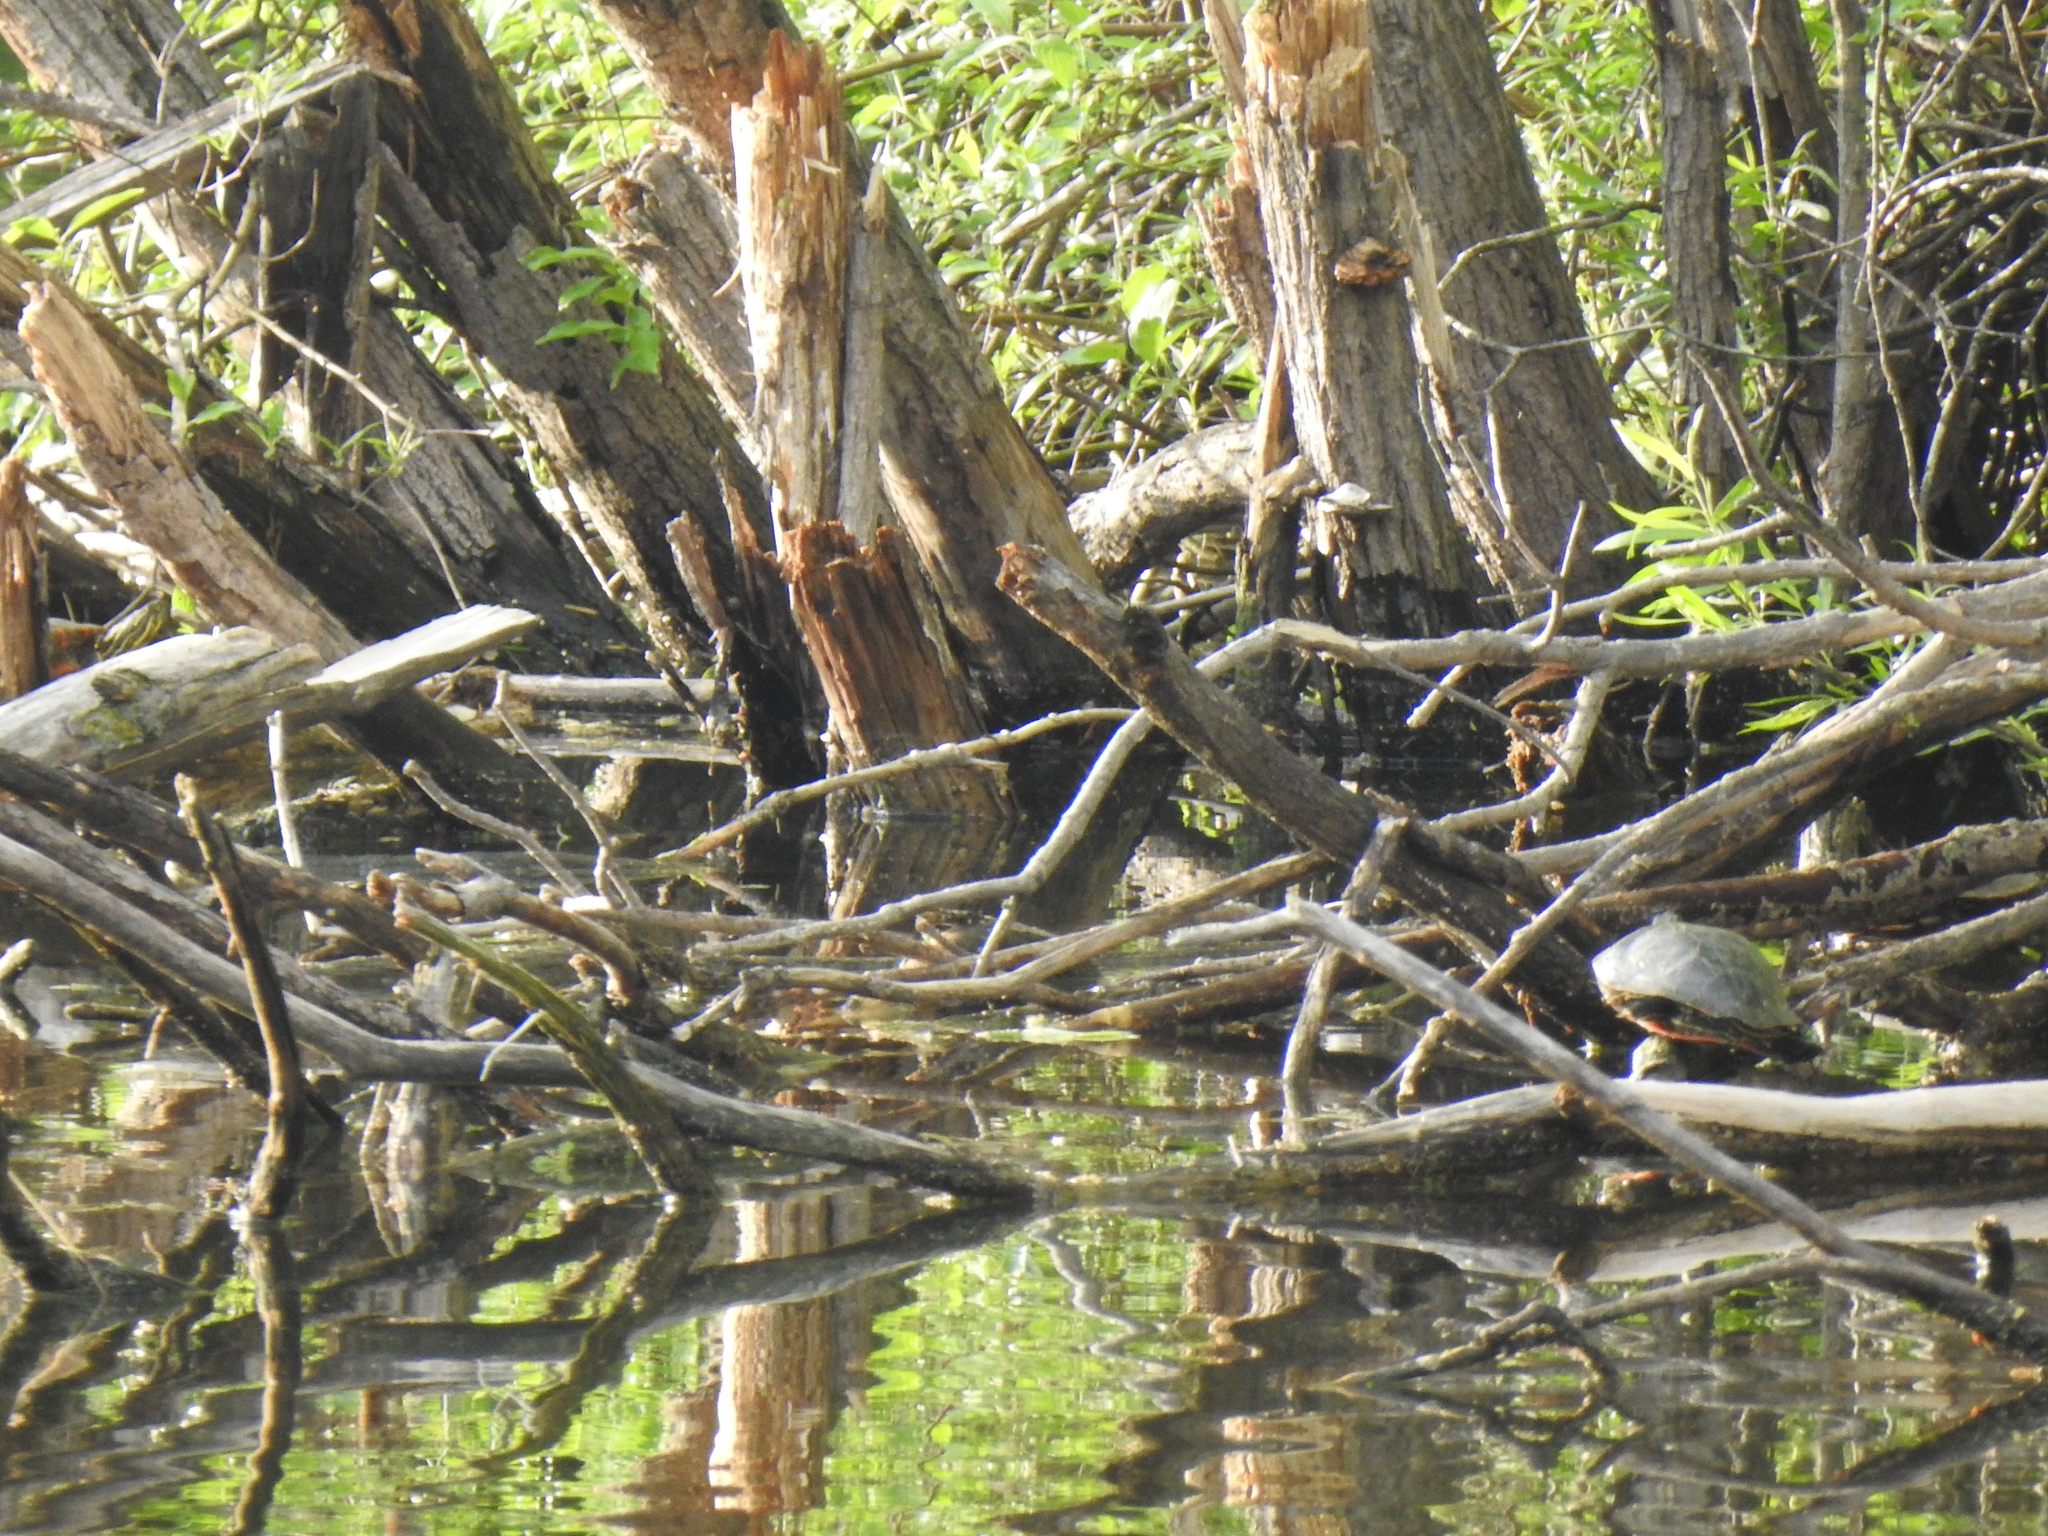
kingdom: Animalia
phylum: Chordata
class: Testudines
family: Emydidae
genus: Chrysemys
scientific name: Chrysemys picta
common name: Painted turtle
